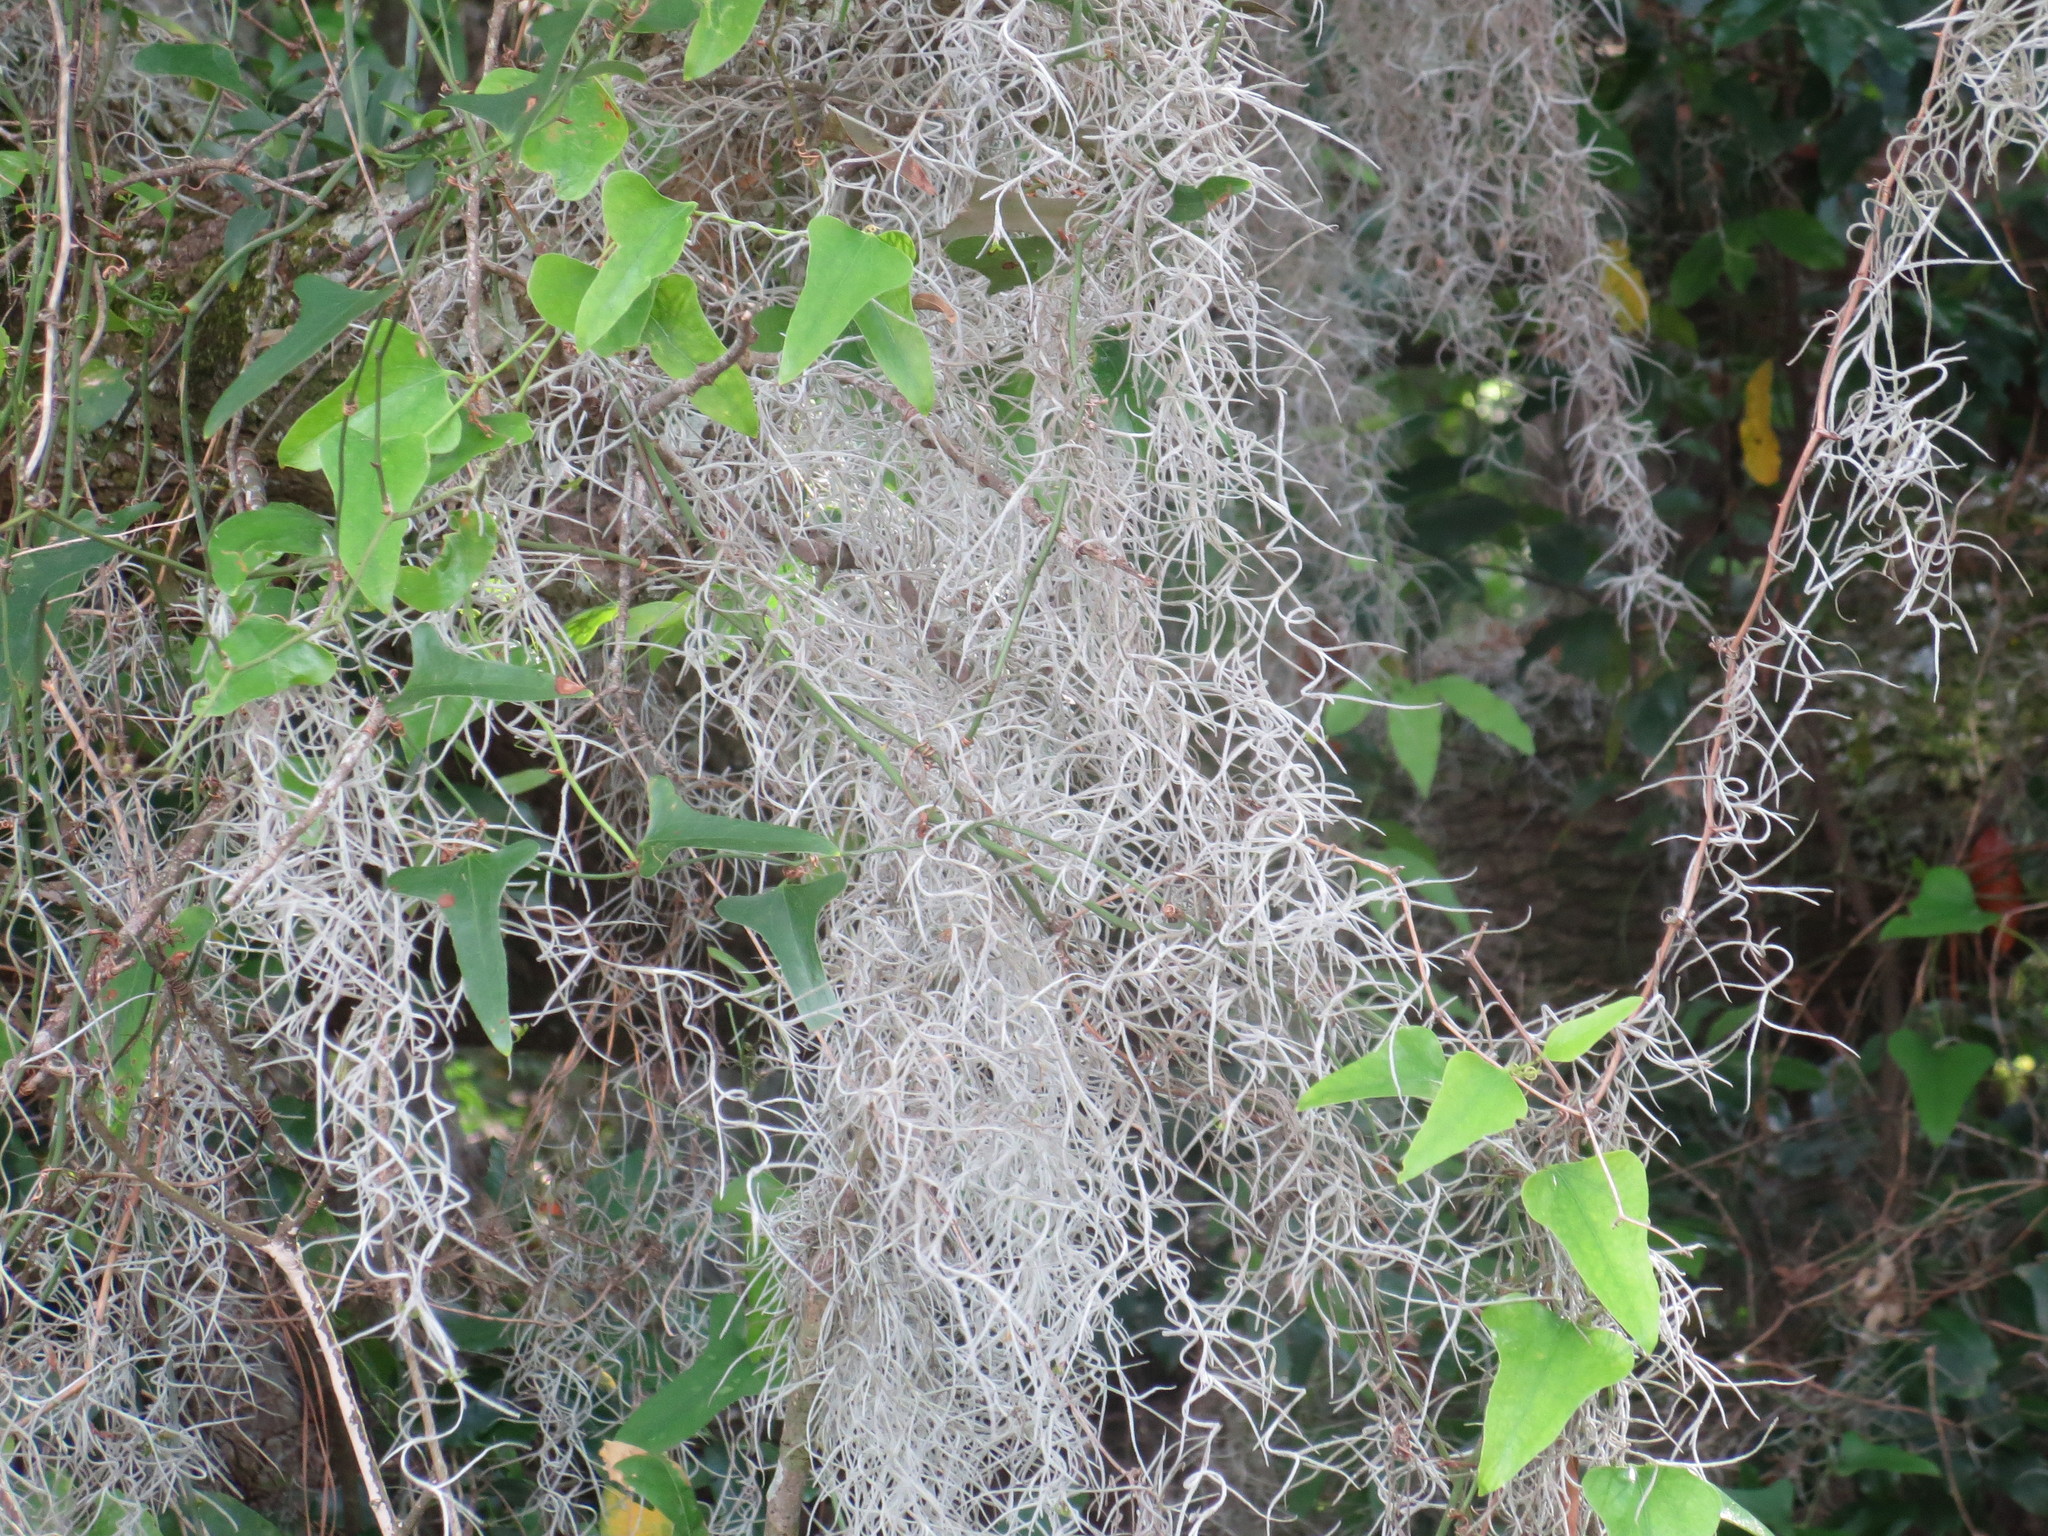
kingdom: Plantae
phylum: Tracheophyta
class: Liliopsida
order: Poales
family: Bromeliaceae
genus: Tillandsia
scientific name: Tillandsia usneoides
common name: Spanish moss
